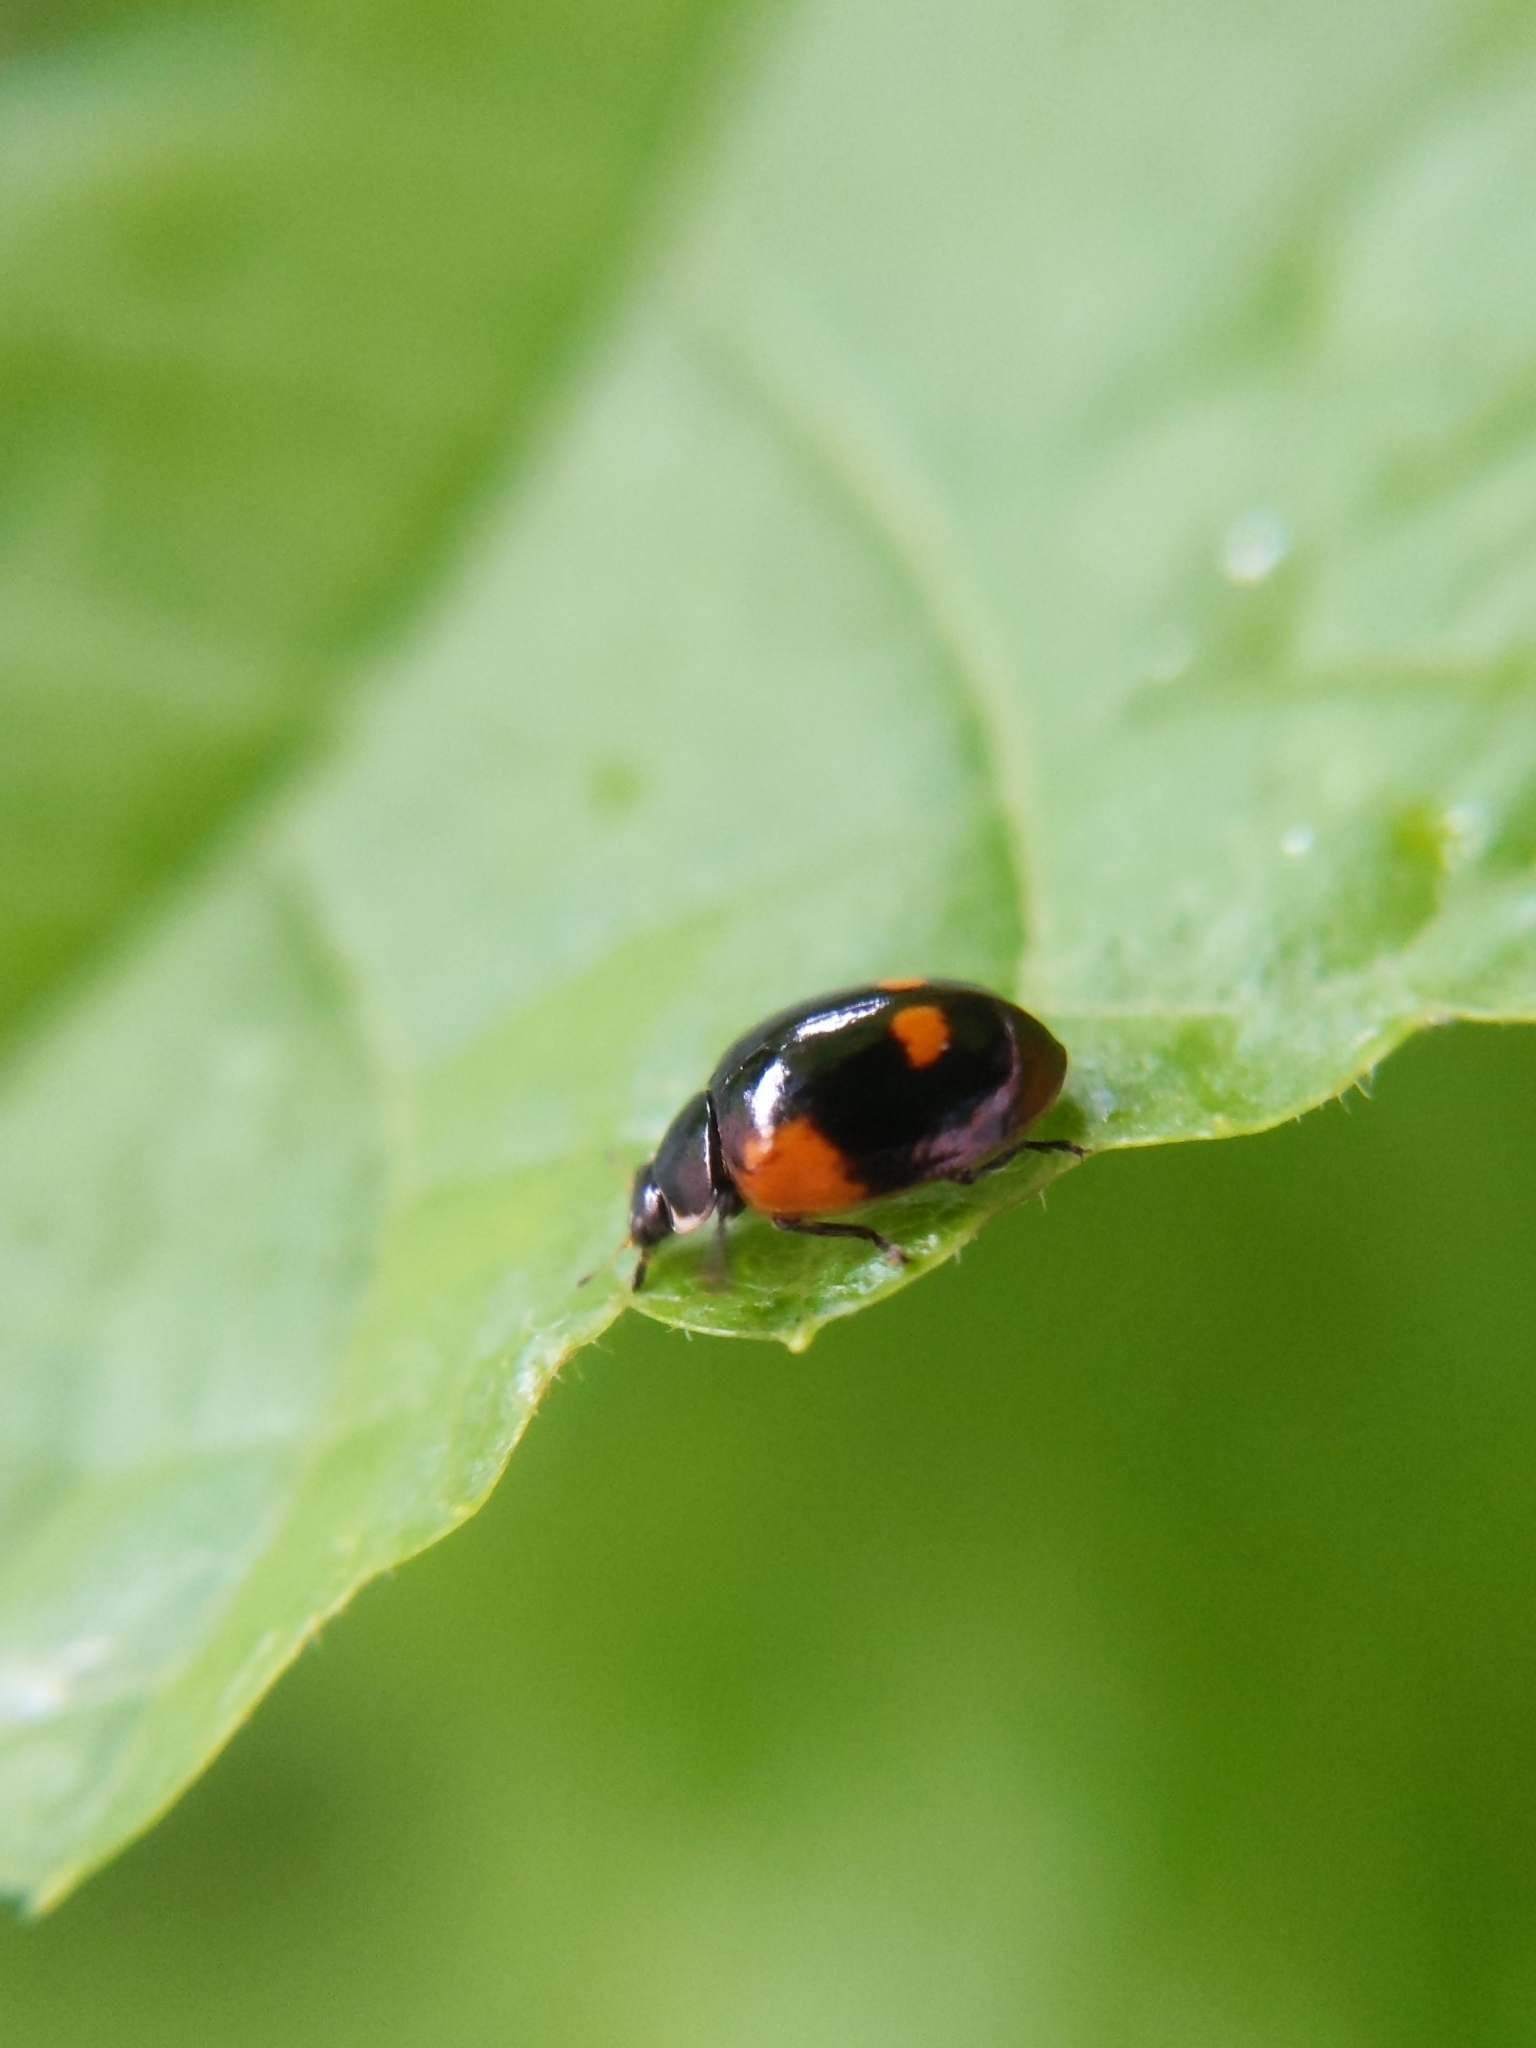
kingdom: Animalia
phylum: Arthropoda
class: Insecta
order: Coleoptera
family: Coccinellidae
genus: Adalia
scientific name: Adalia bipunctata
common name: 2-spot ladybird
